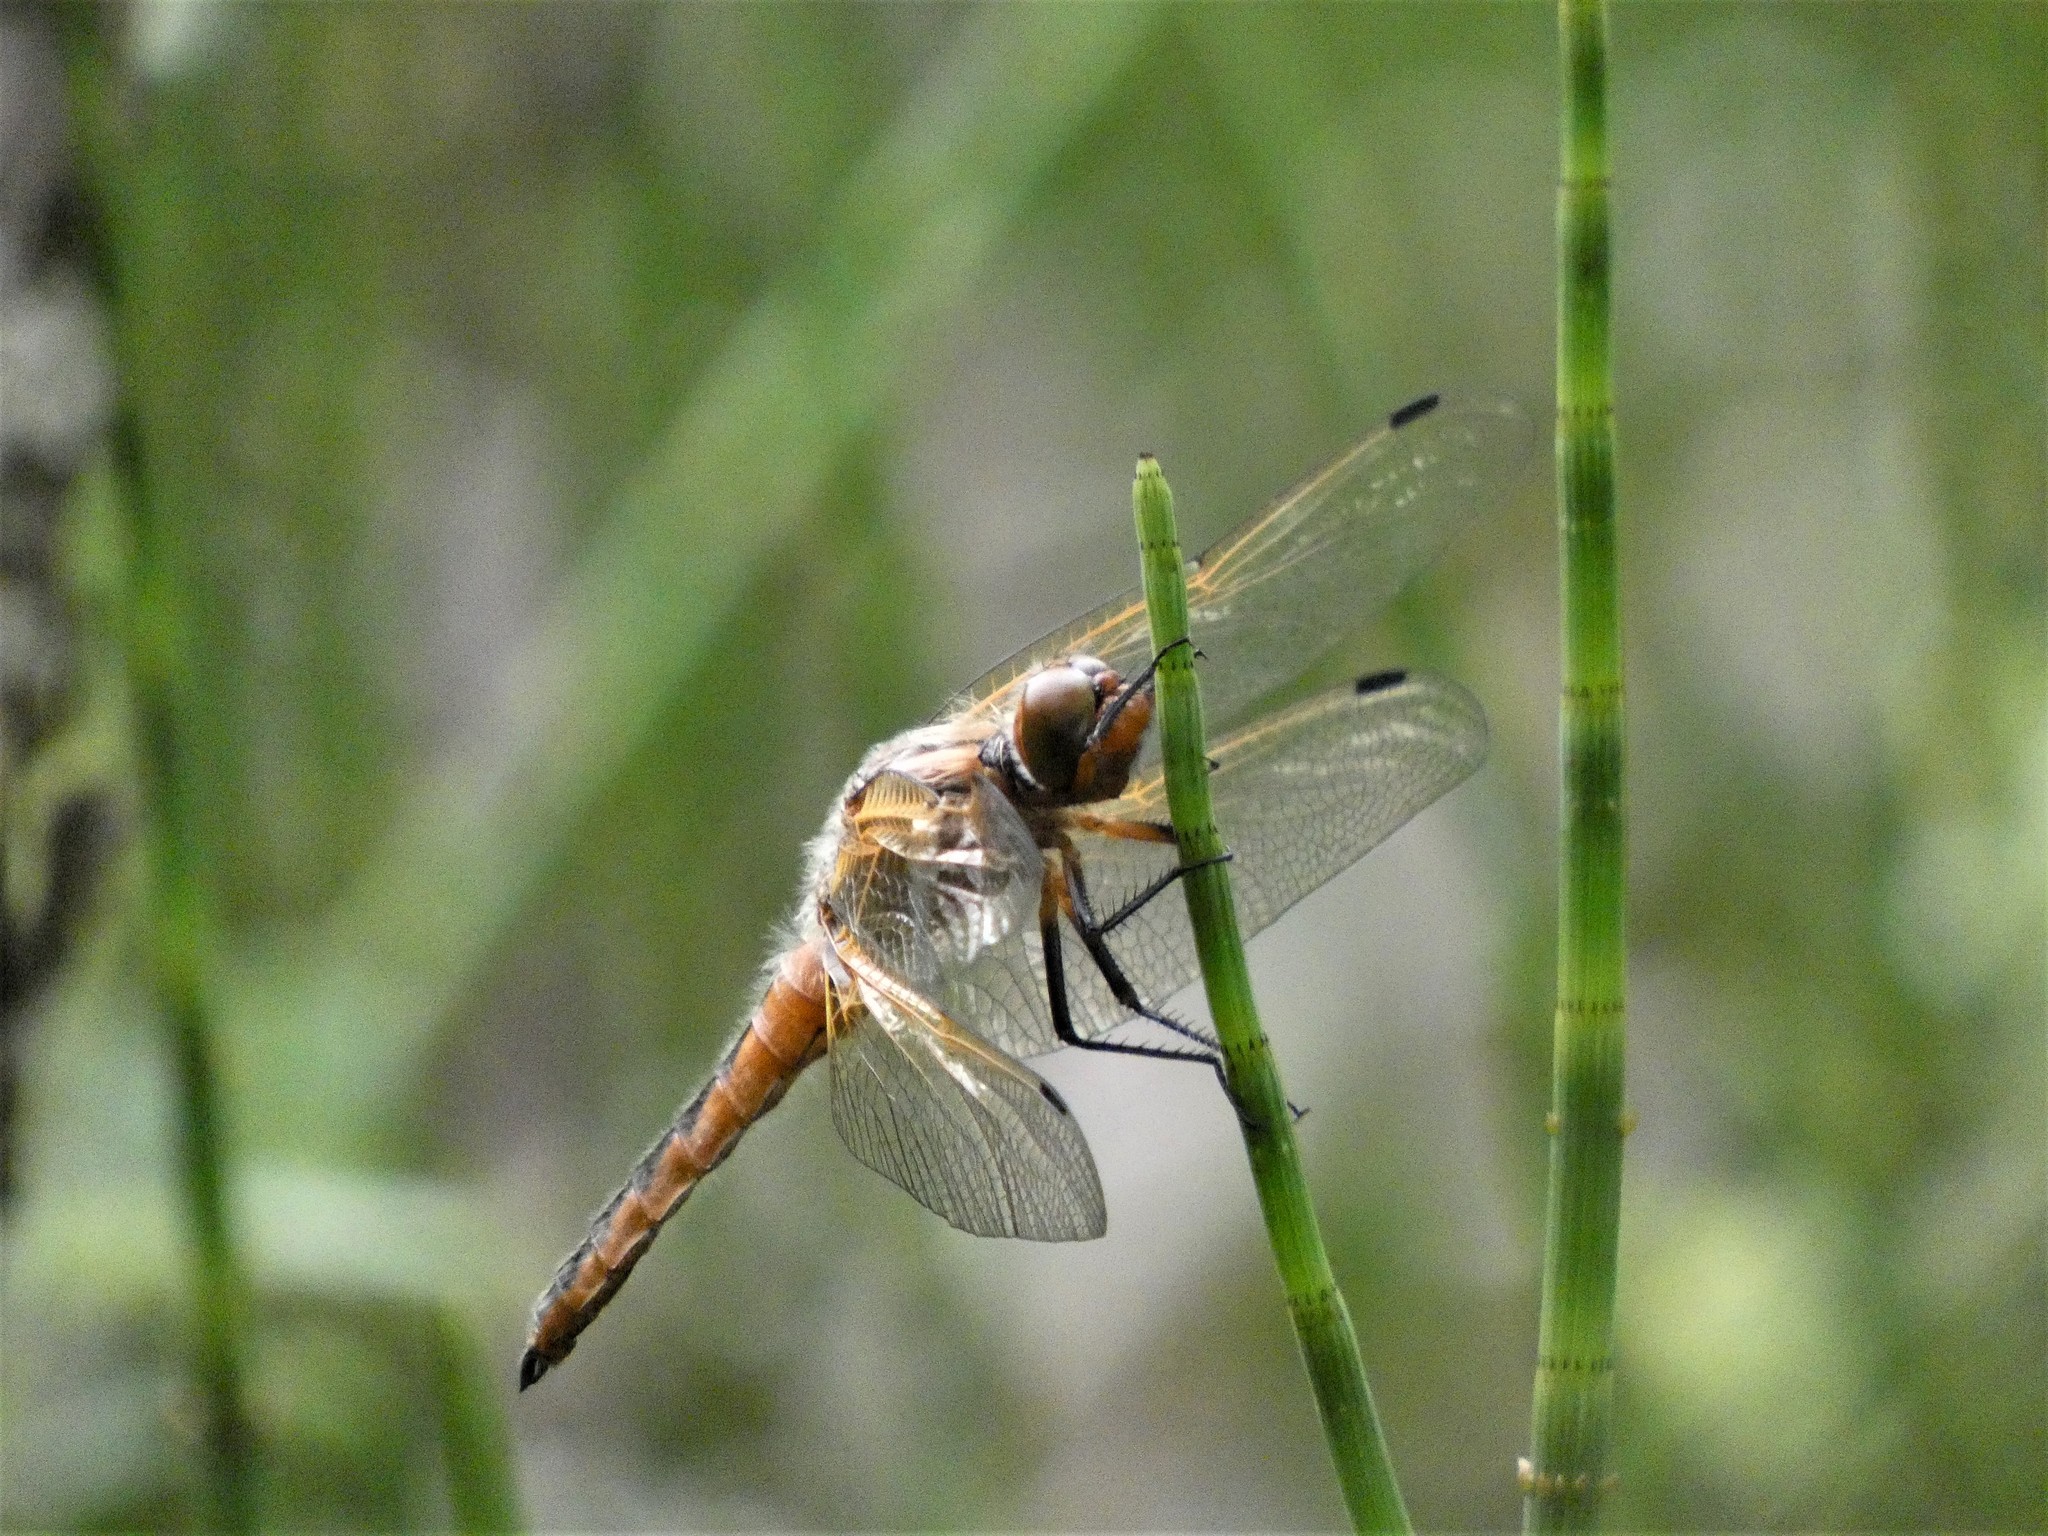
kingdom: Animalia
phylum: Arthropoda
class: Insecta
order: Odonata
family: Libellulidae
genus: Libellula
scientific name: Libellula fulva
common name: Blue chaser
